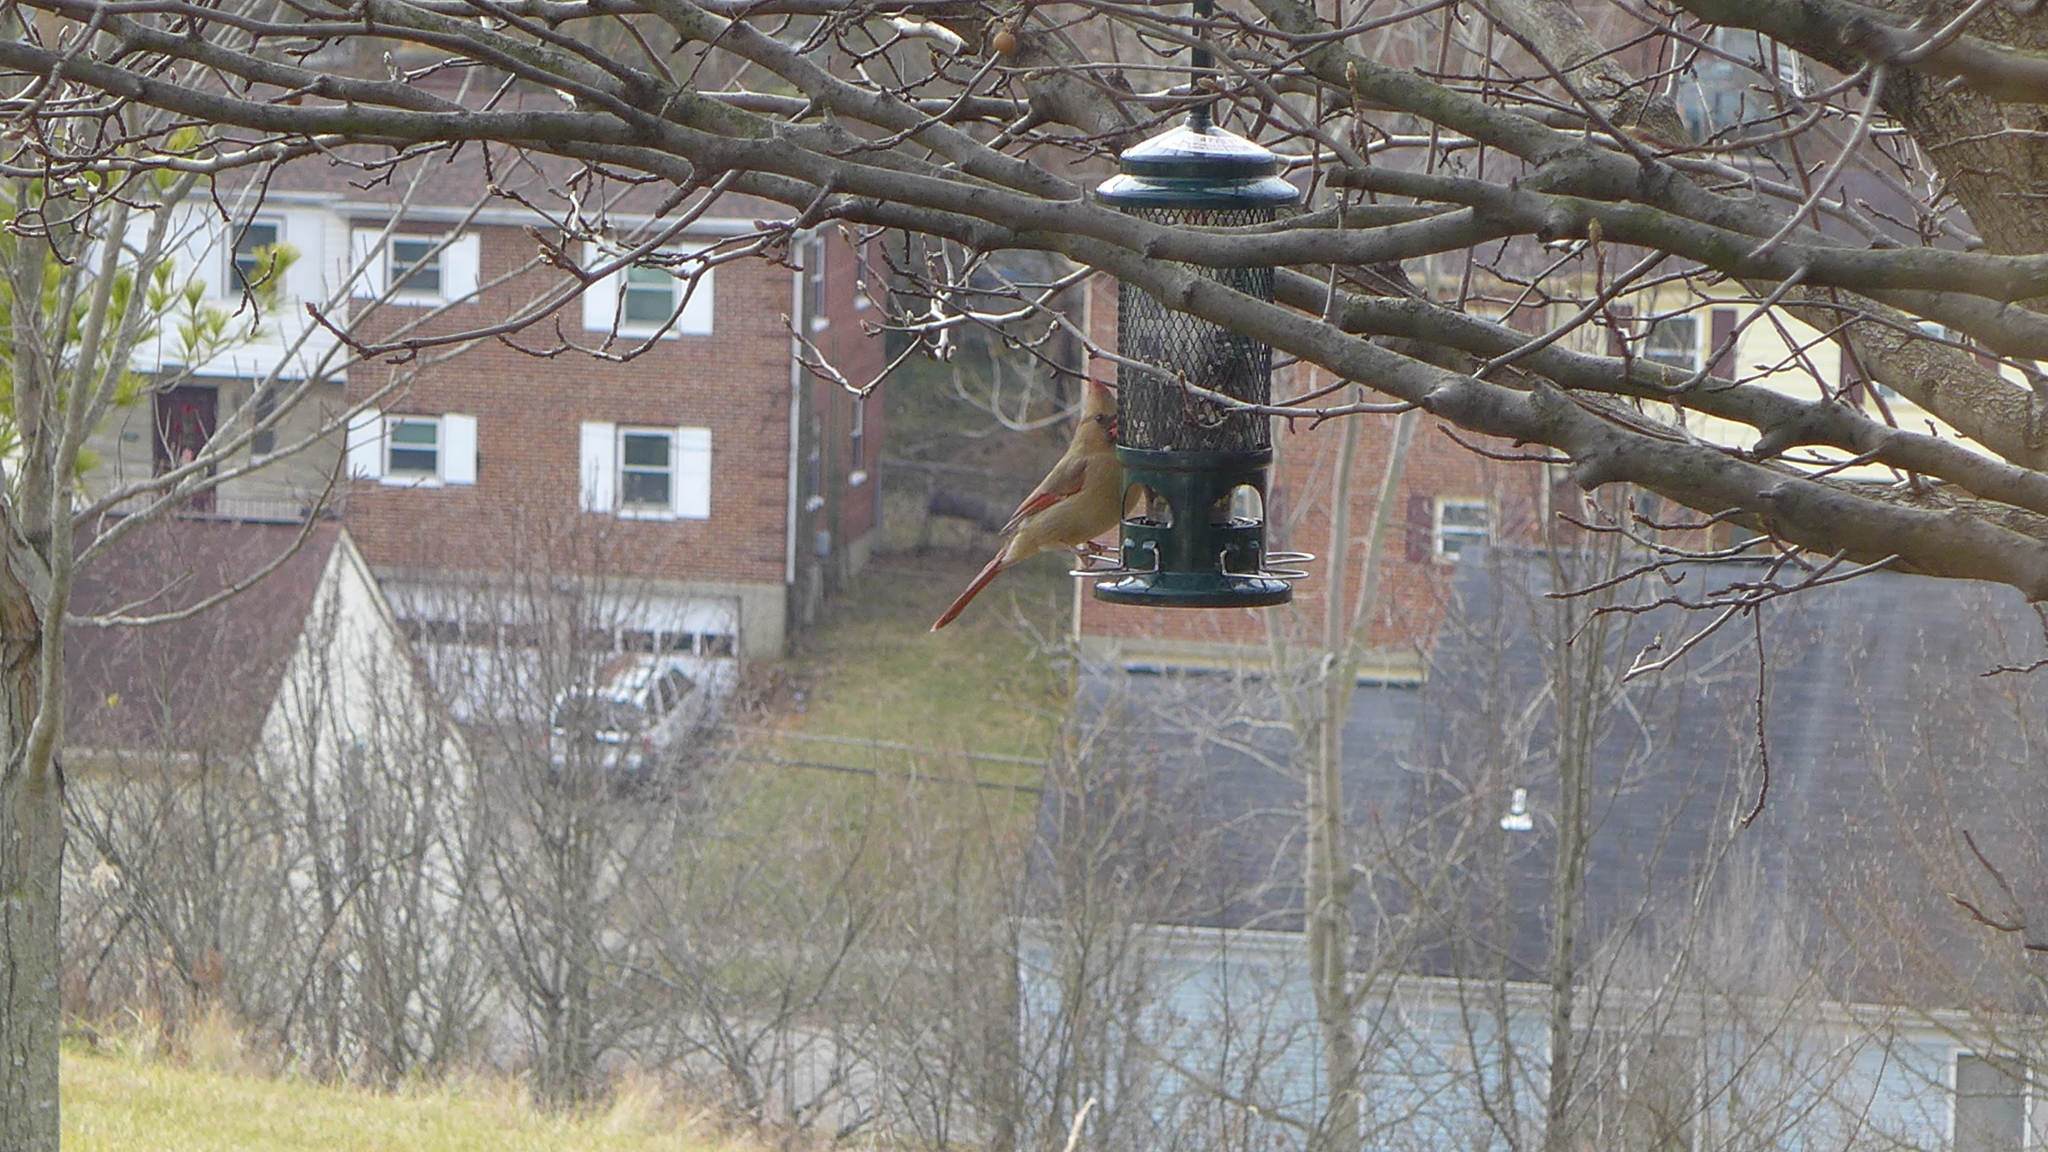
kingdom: Animalia
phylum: Chordata
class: Aves
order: Passeriformes
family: Cardinalidae
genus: Cardinalis
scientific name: Cardinalis cardinalis
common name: Northern cardinal
